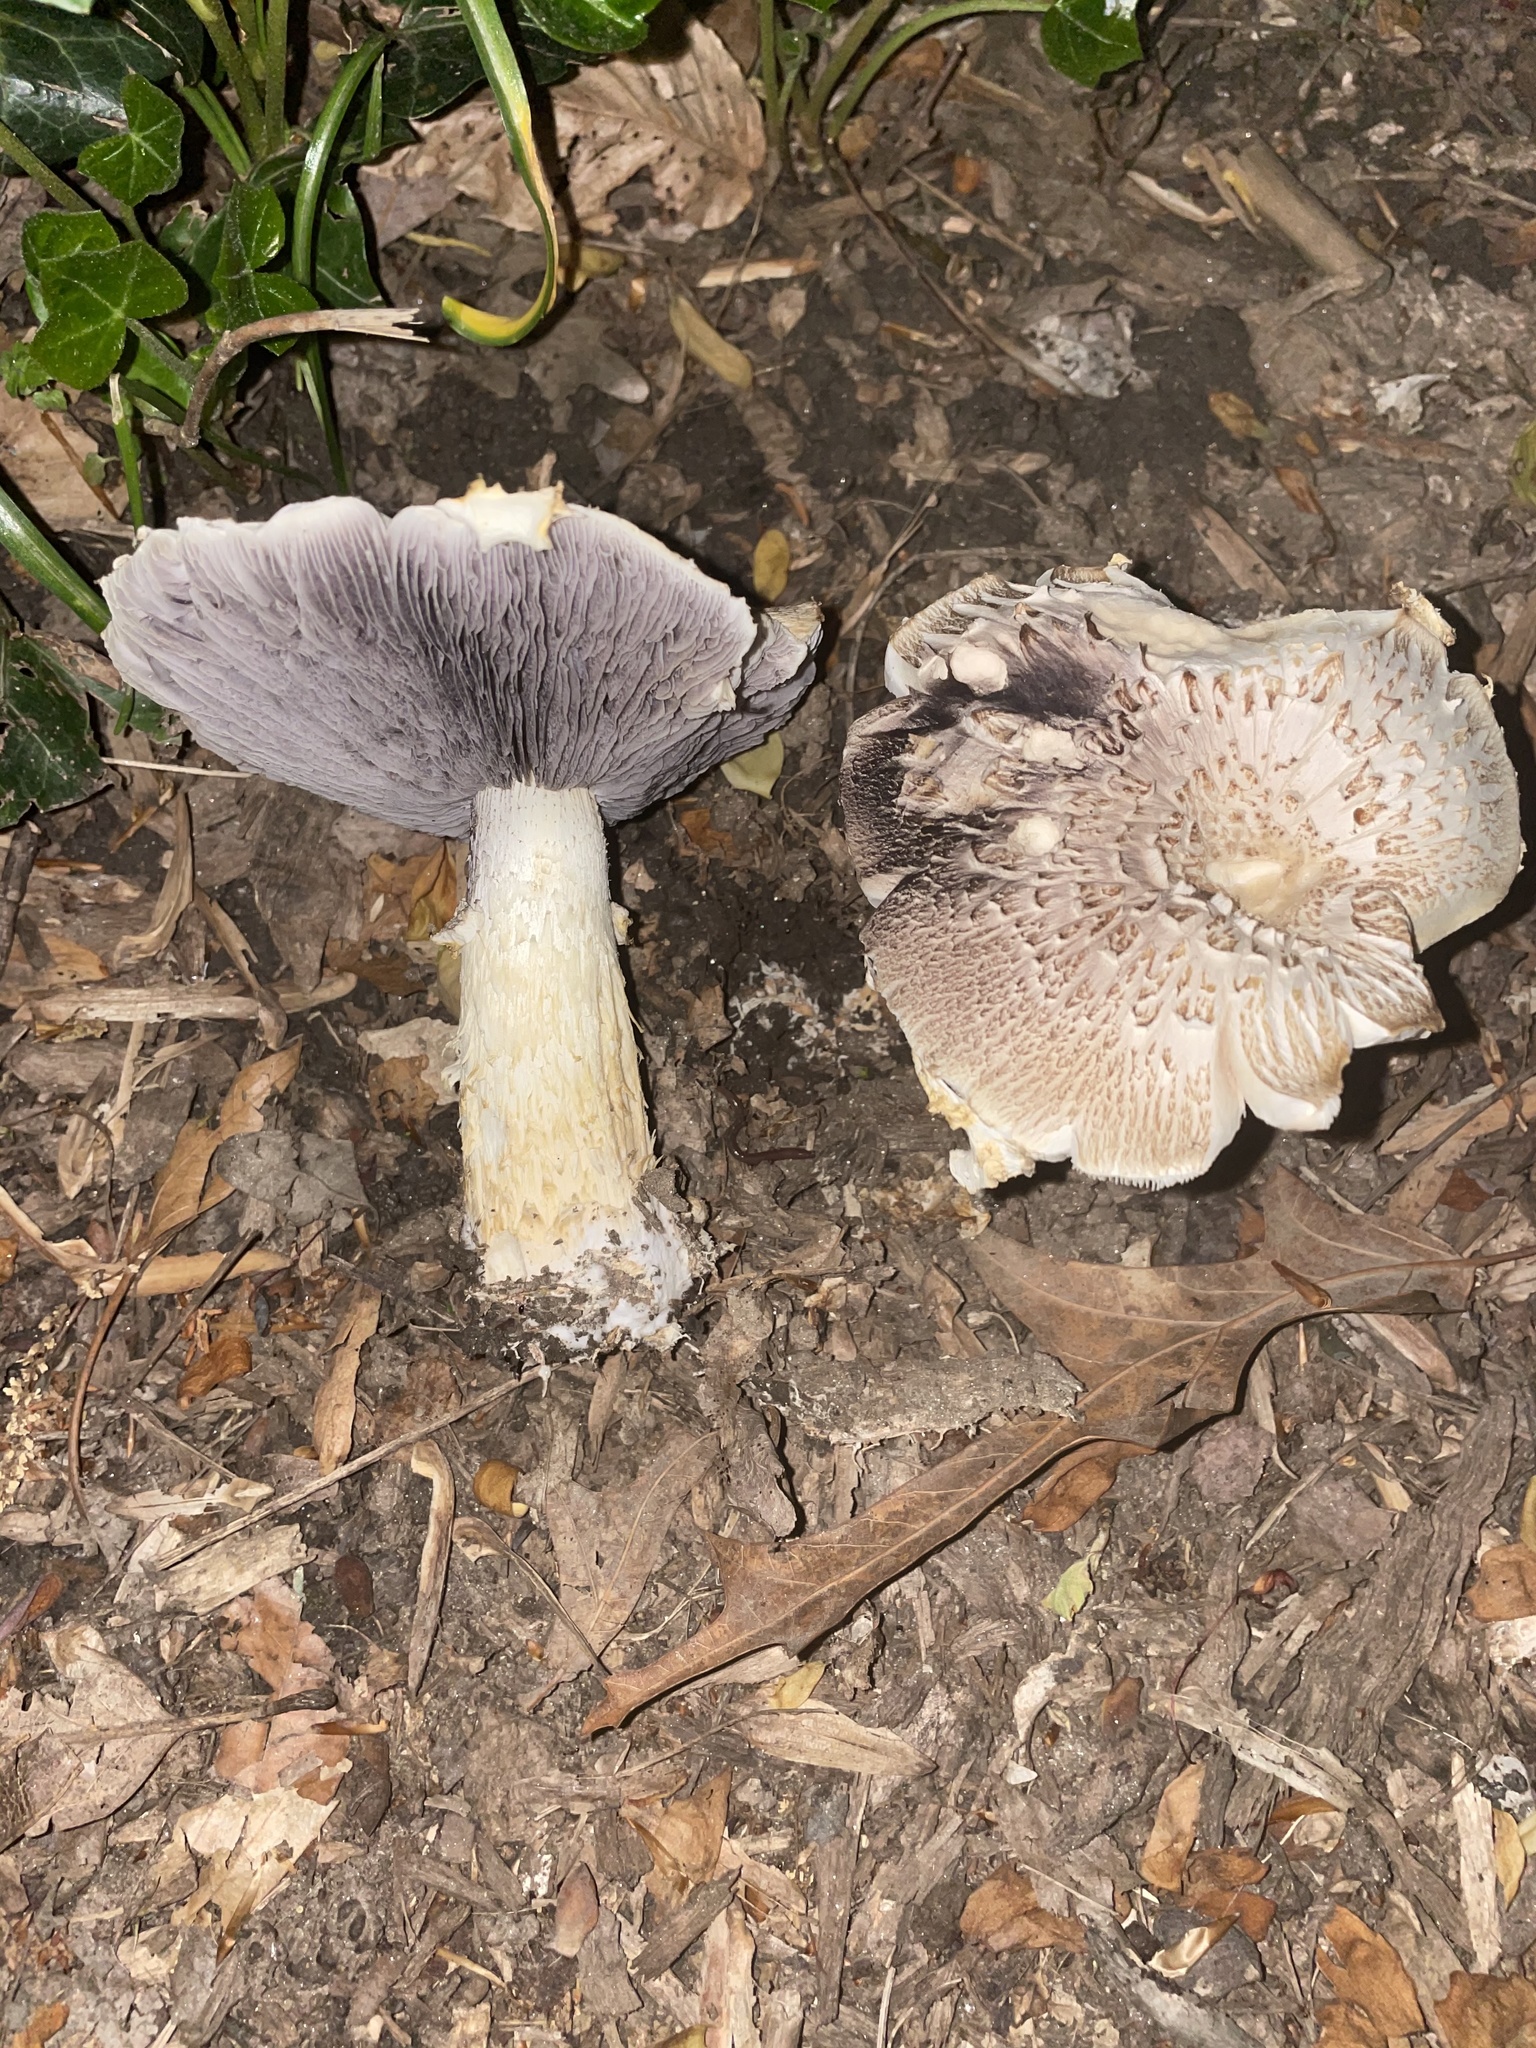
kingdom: Fungi
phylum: Basidiomycota
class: Agaricomycetes
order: Agaricales
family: Strophariaceae
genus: Stropharia
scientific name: Stropharia rugosoannulata
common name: Wine roundhead
